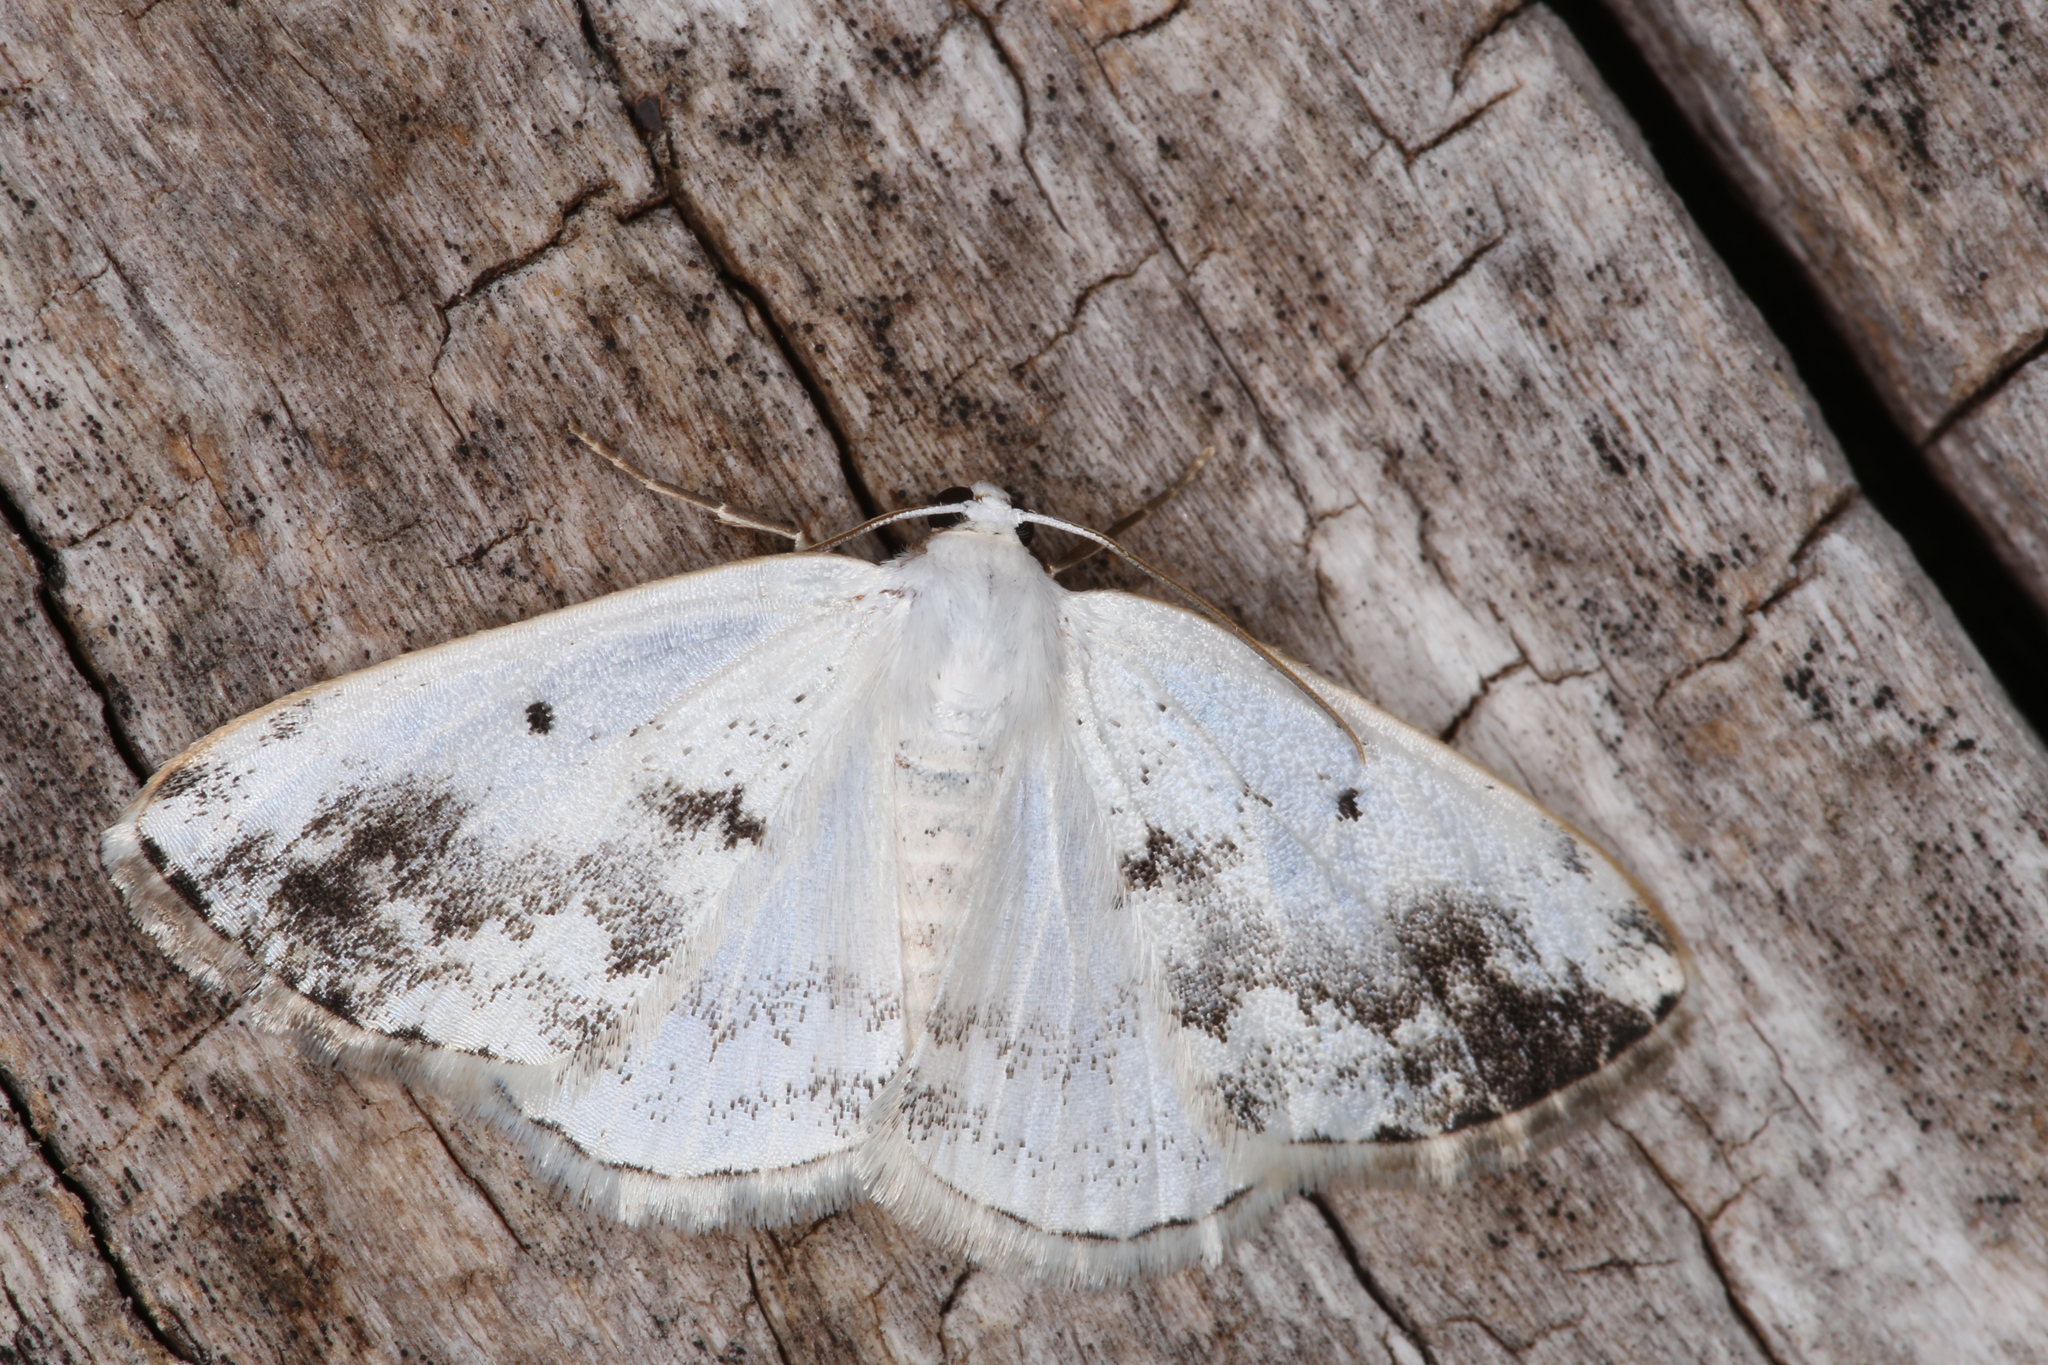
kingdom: Animalia
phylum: Arthropoda
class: Insecta
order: Lepidoptera
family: Geometridae
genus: Lomographa
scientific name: Lomographa temerata
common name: Clouded silver
